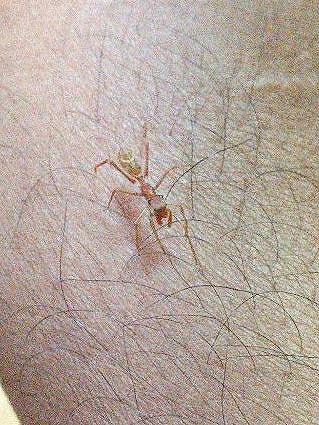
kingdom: Animalia
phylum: Arthropoda
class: Arachnida
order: Araneae
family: Salticidae
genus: Myrmaplata
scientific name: Myrmaplata plataleoides
